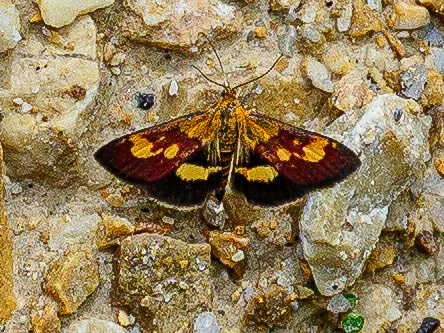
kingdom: Animalia
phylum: Arthropoda
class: Insecta
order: Lepidoptera
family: Crambidae
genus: Pyrausta
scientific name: Pyrausta falcatalis
